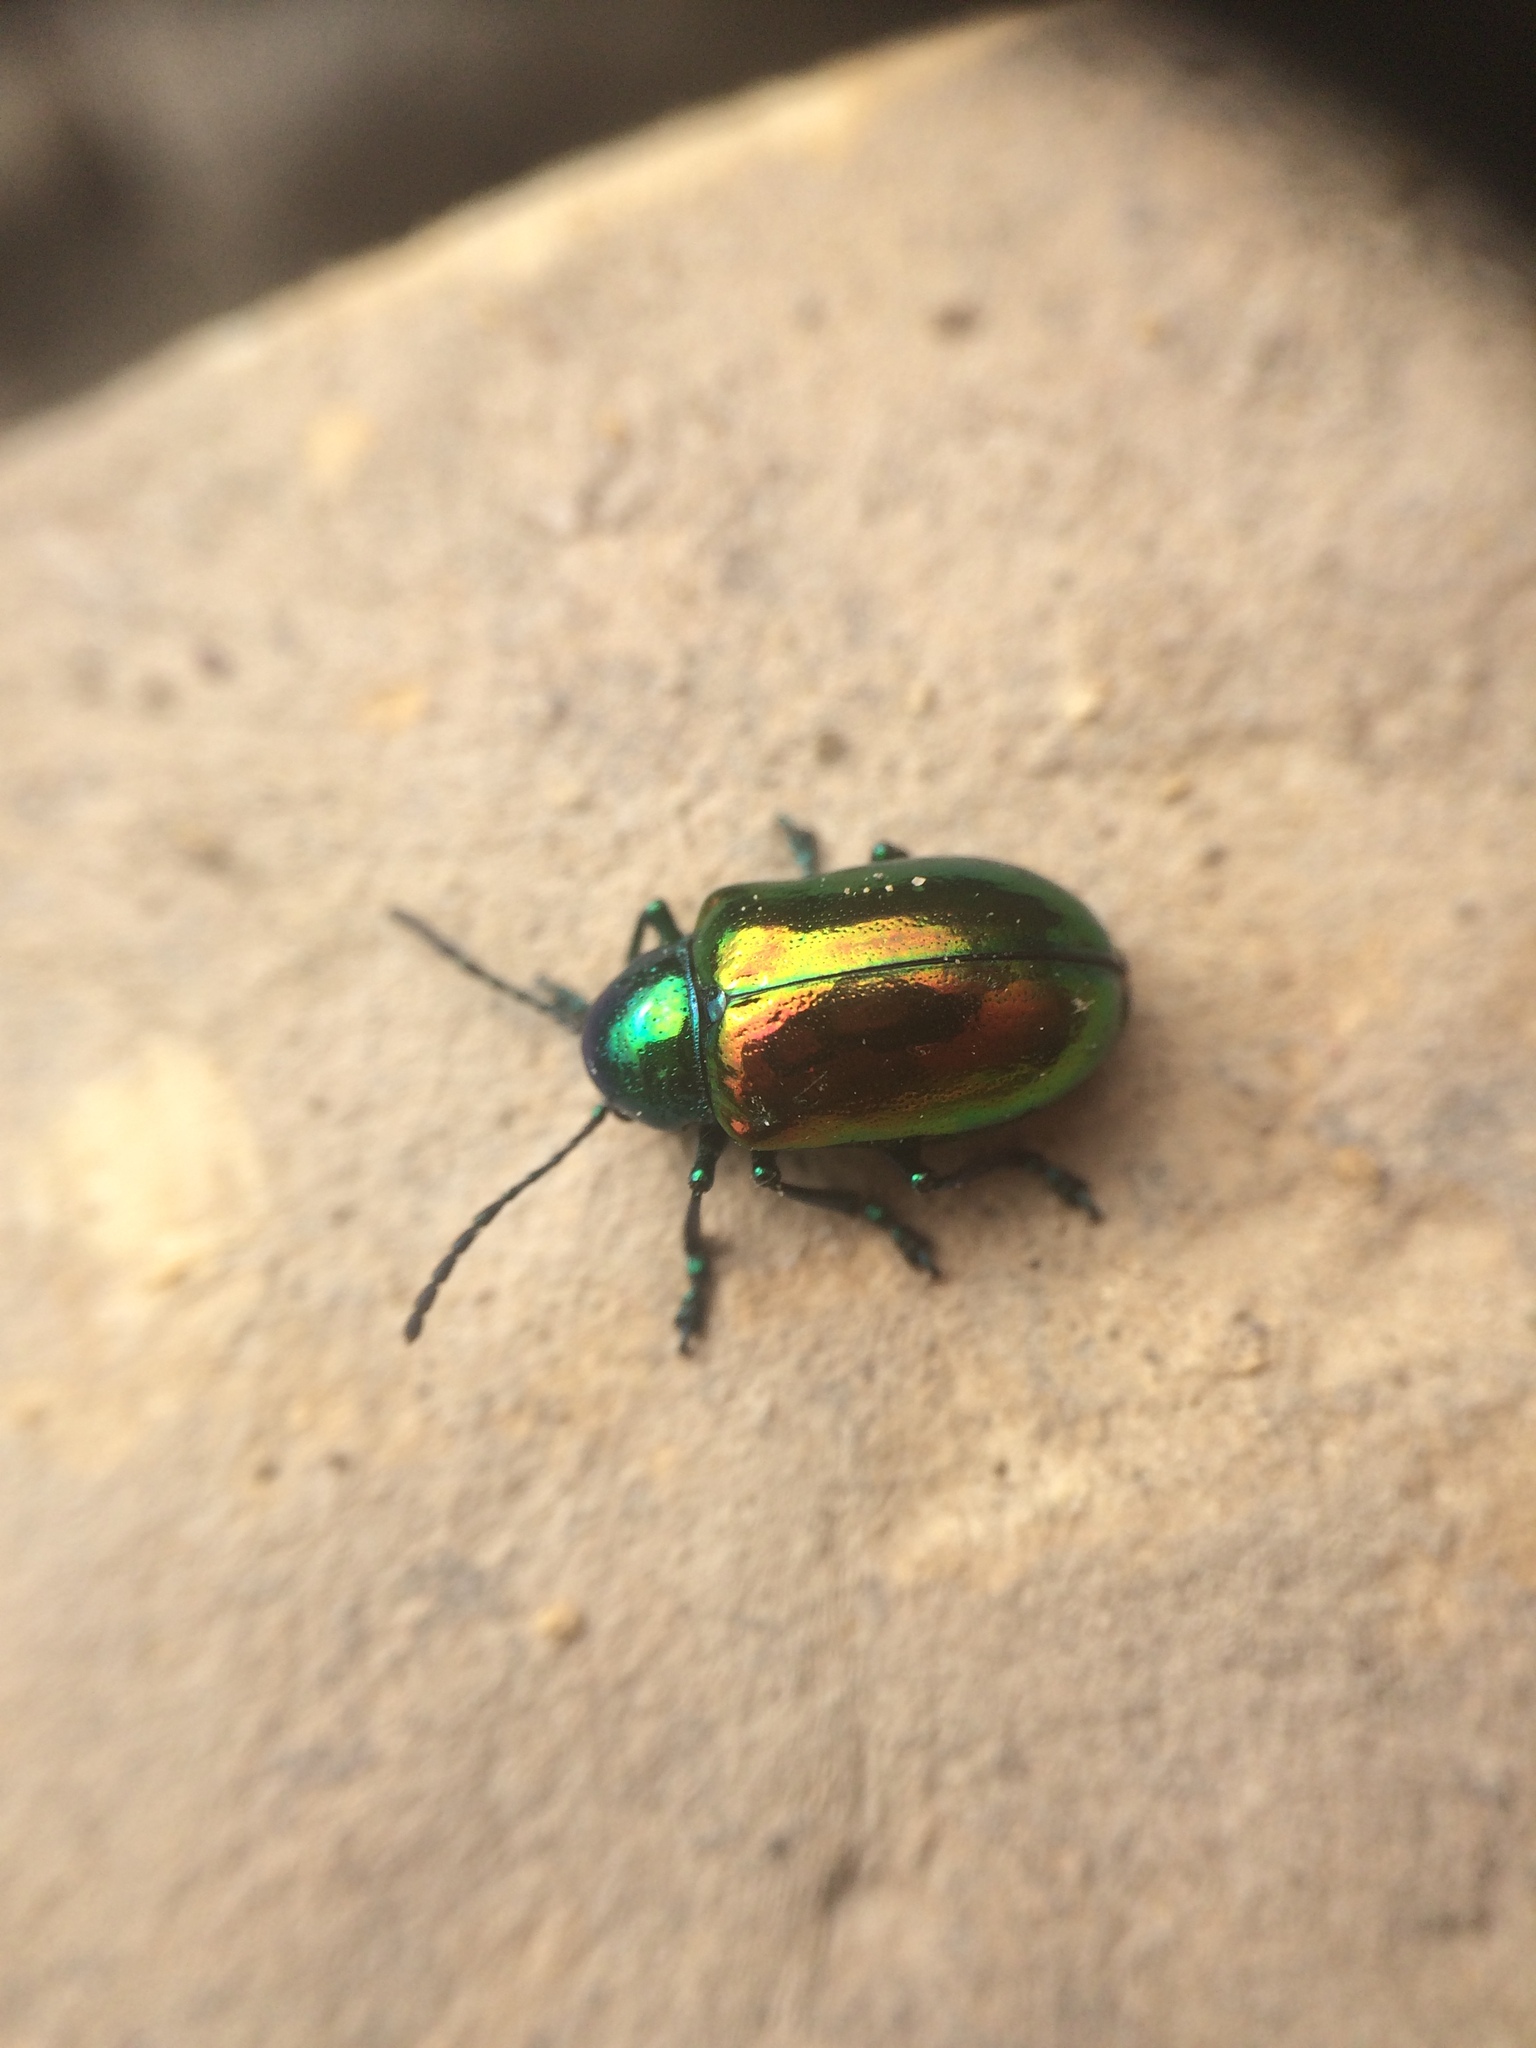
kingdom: Animalia
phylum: Arthropoda
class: Insecta
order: Coleoptera
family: Chrysomelidae
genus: Chrysochus
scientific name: Chrysochus auratus
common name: Dogbane leaf beetle
